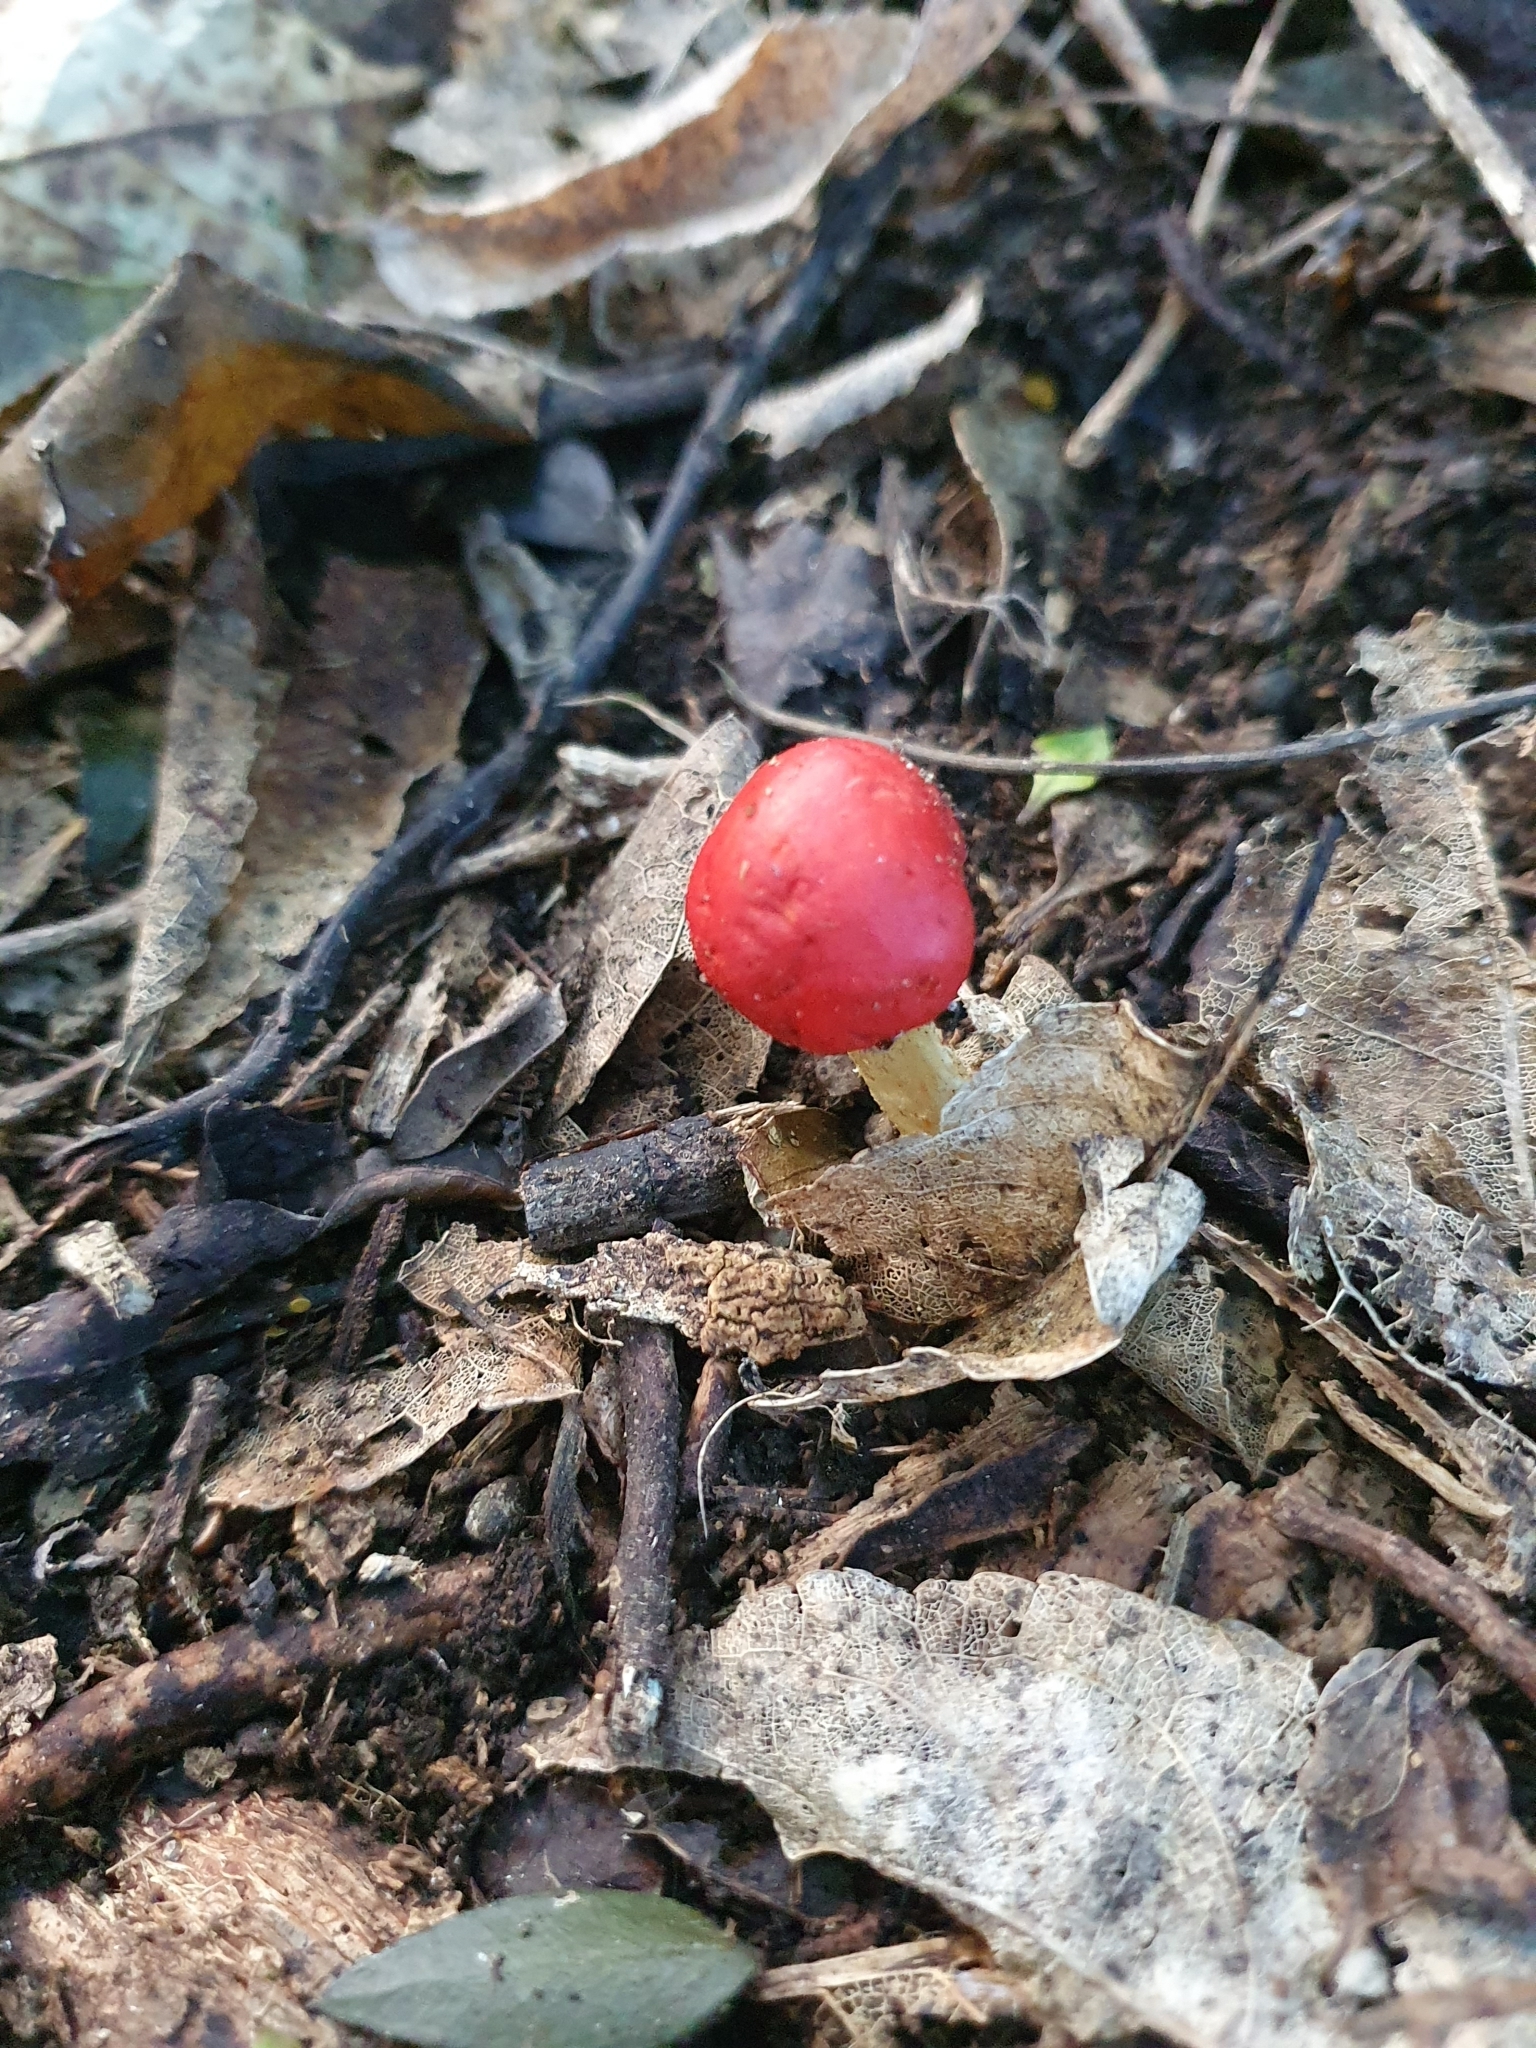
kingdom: Fungi
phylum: Basidiomycota
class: Agaricomycetes
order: Agaricales
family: Strophariaceae
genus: Leratiomyces
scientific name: Leratiomyces erythrocephalus
